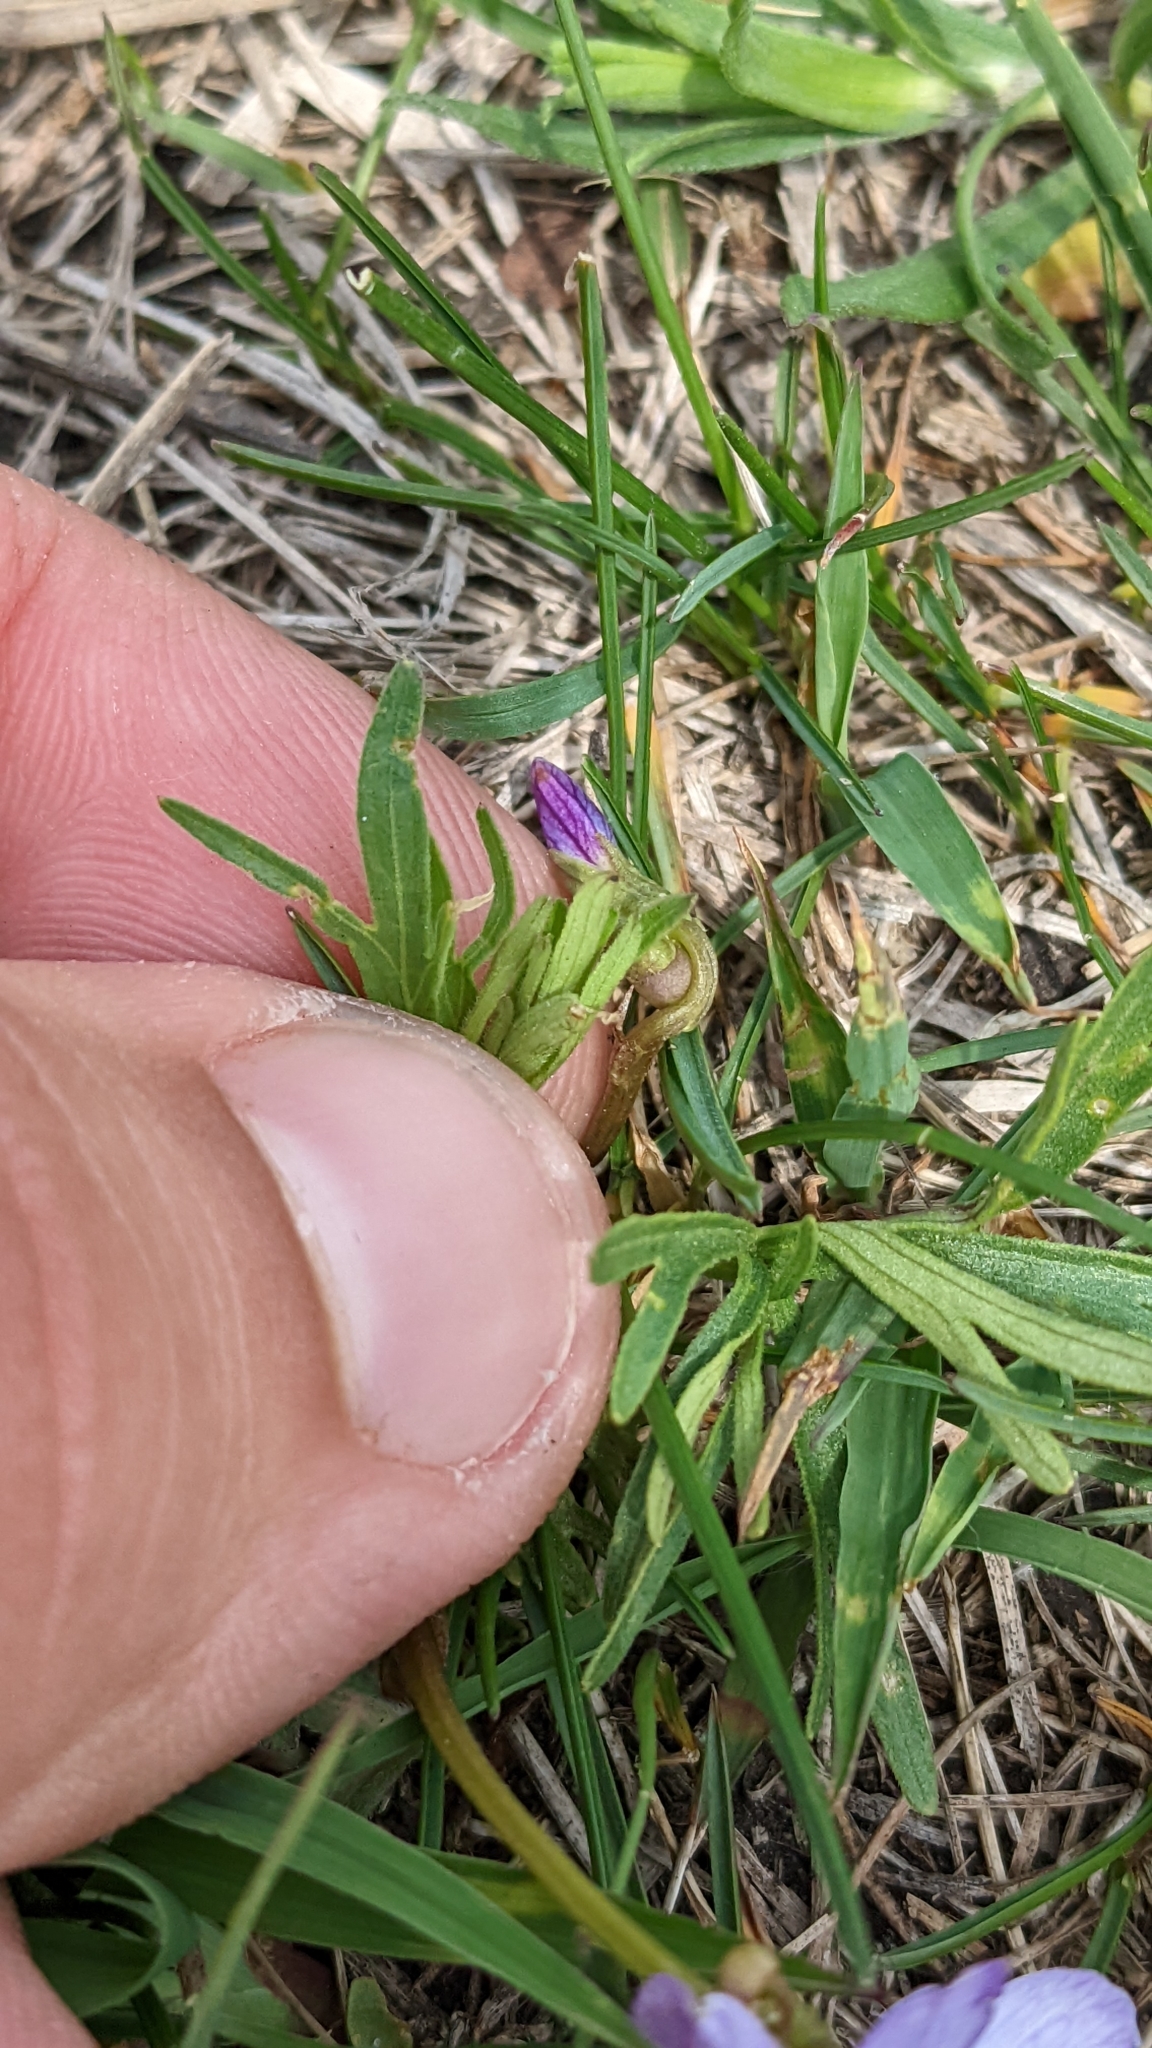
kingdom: Plantae
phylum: Tracheophyta
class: Magnoliopsida
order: Malpighiales
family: Violaceae
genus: Viola
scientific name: Viola pedatifida
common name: Prairie violet
